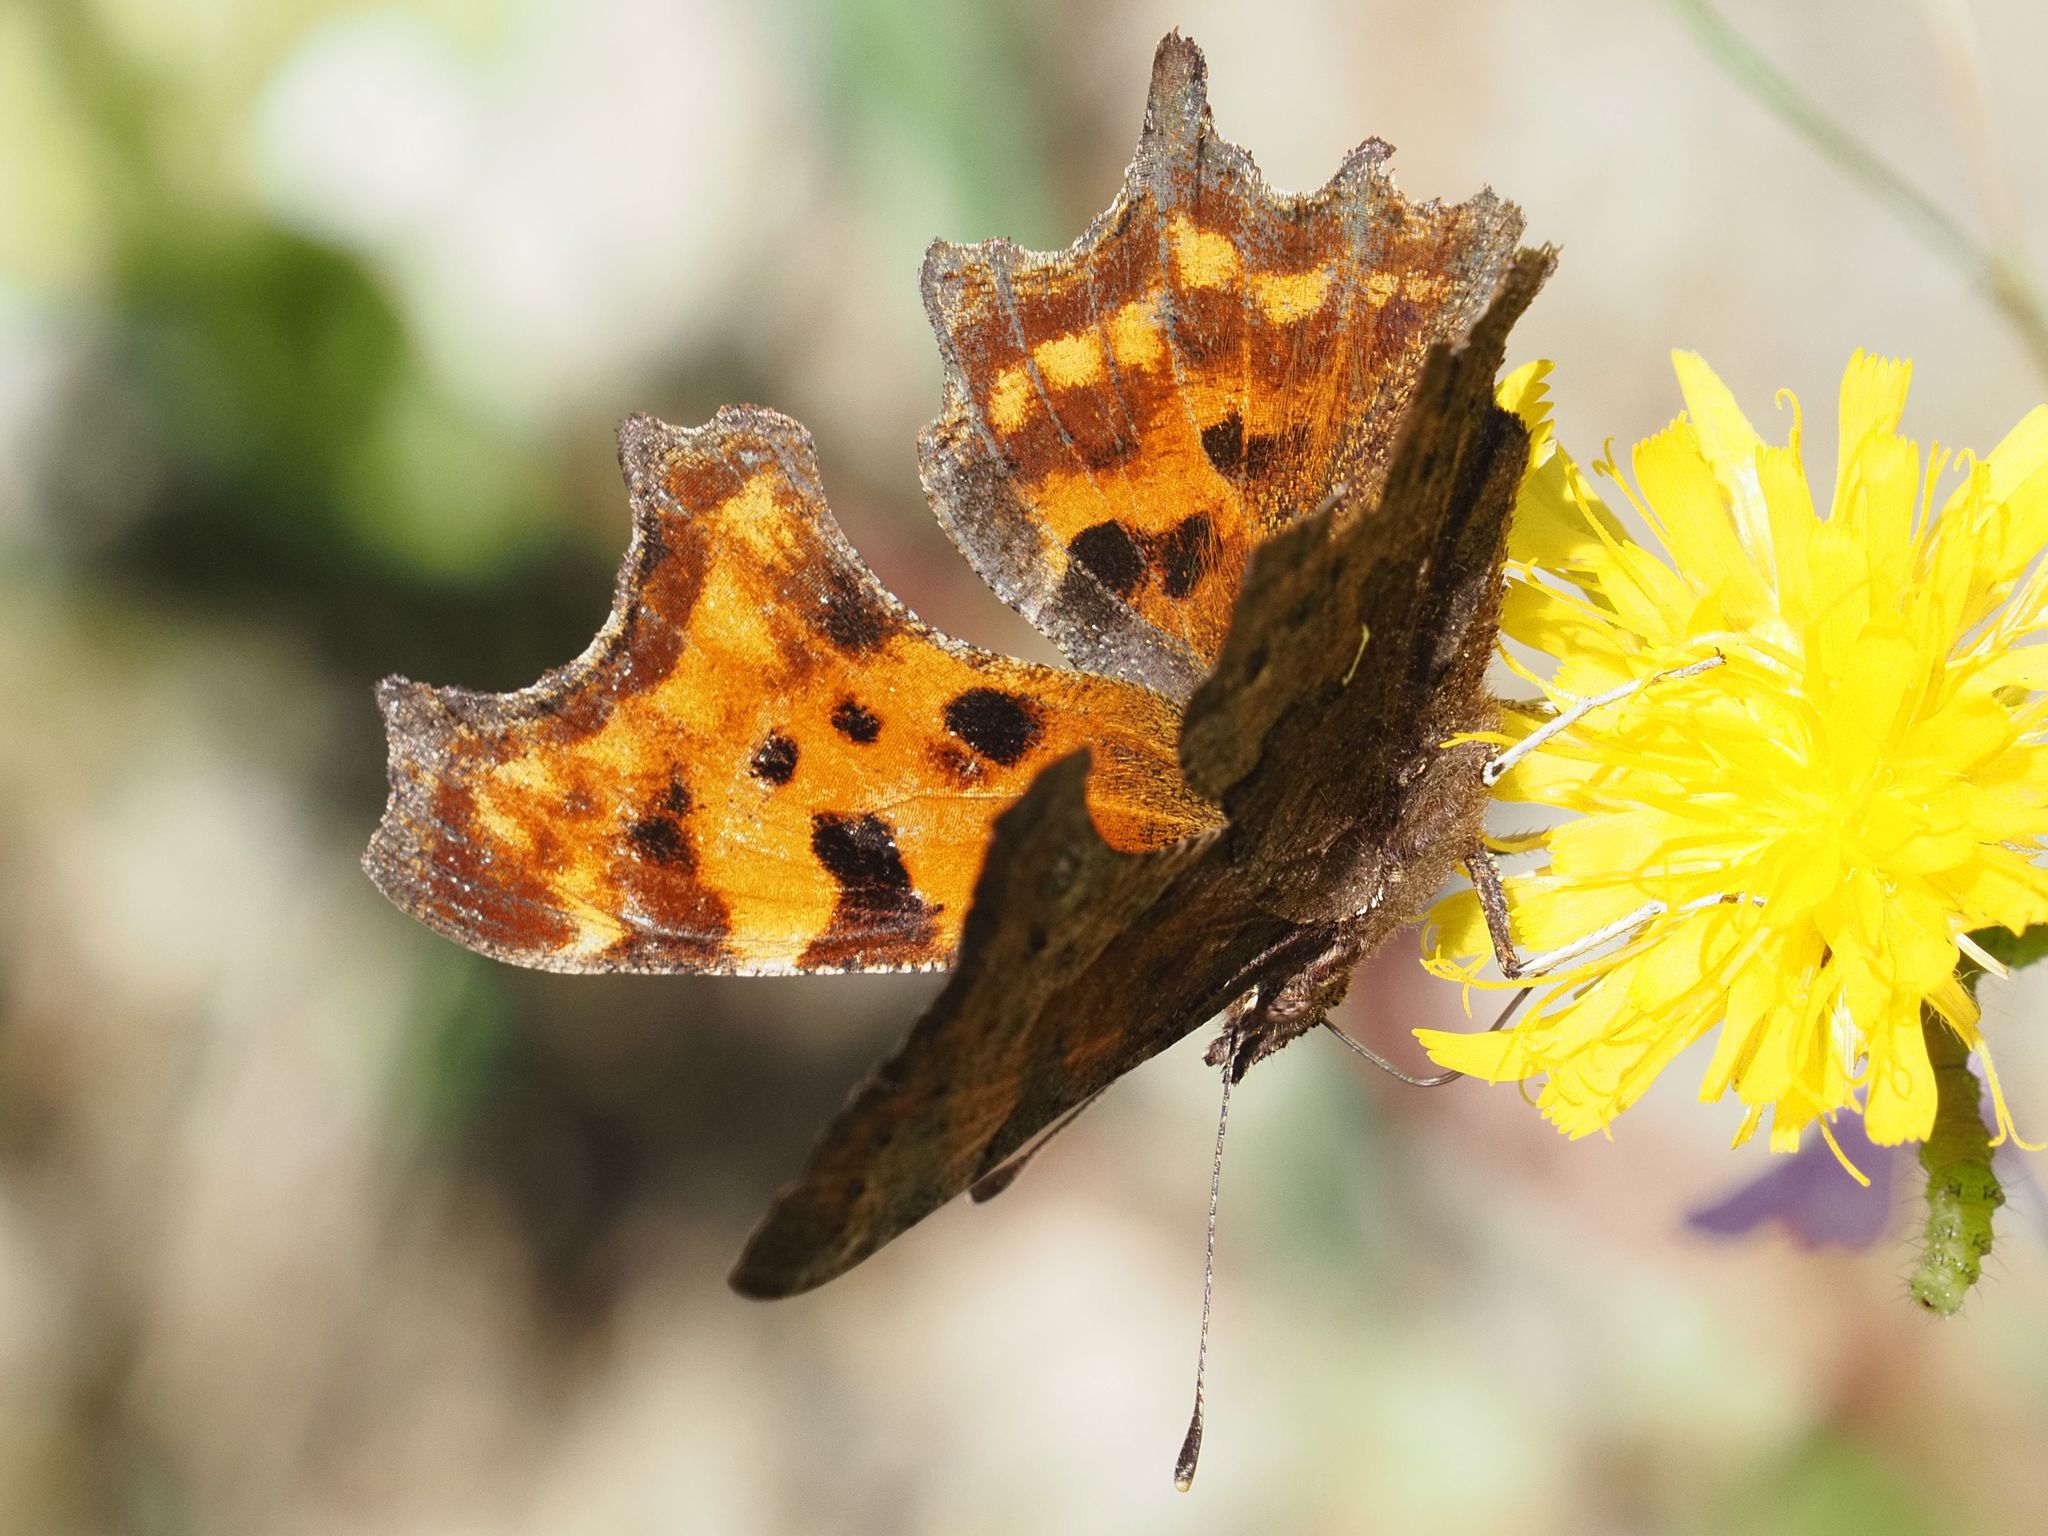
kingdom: Animalia
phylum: Arthropoda
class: Insecta
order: Lepidoptera
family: Nymphalidae
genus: Polygonia
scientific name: Polygonia c-album
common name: Comma
